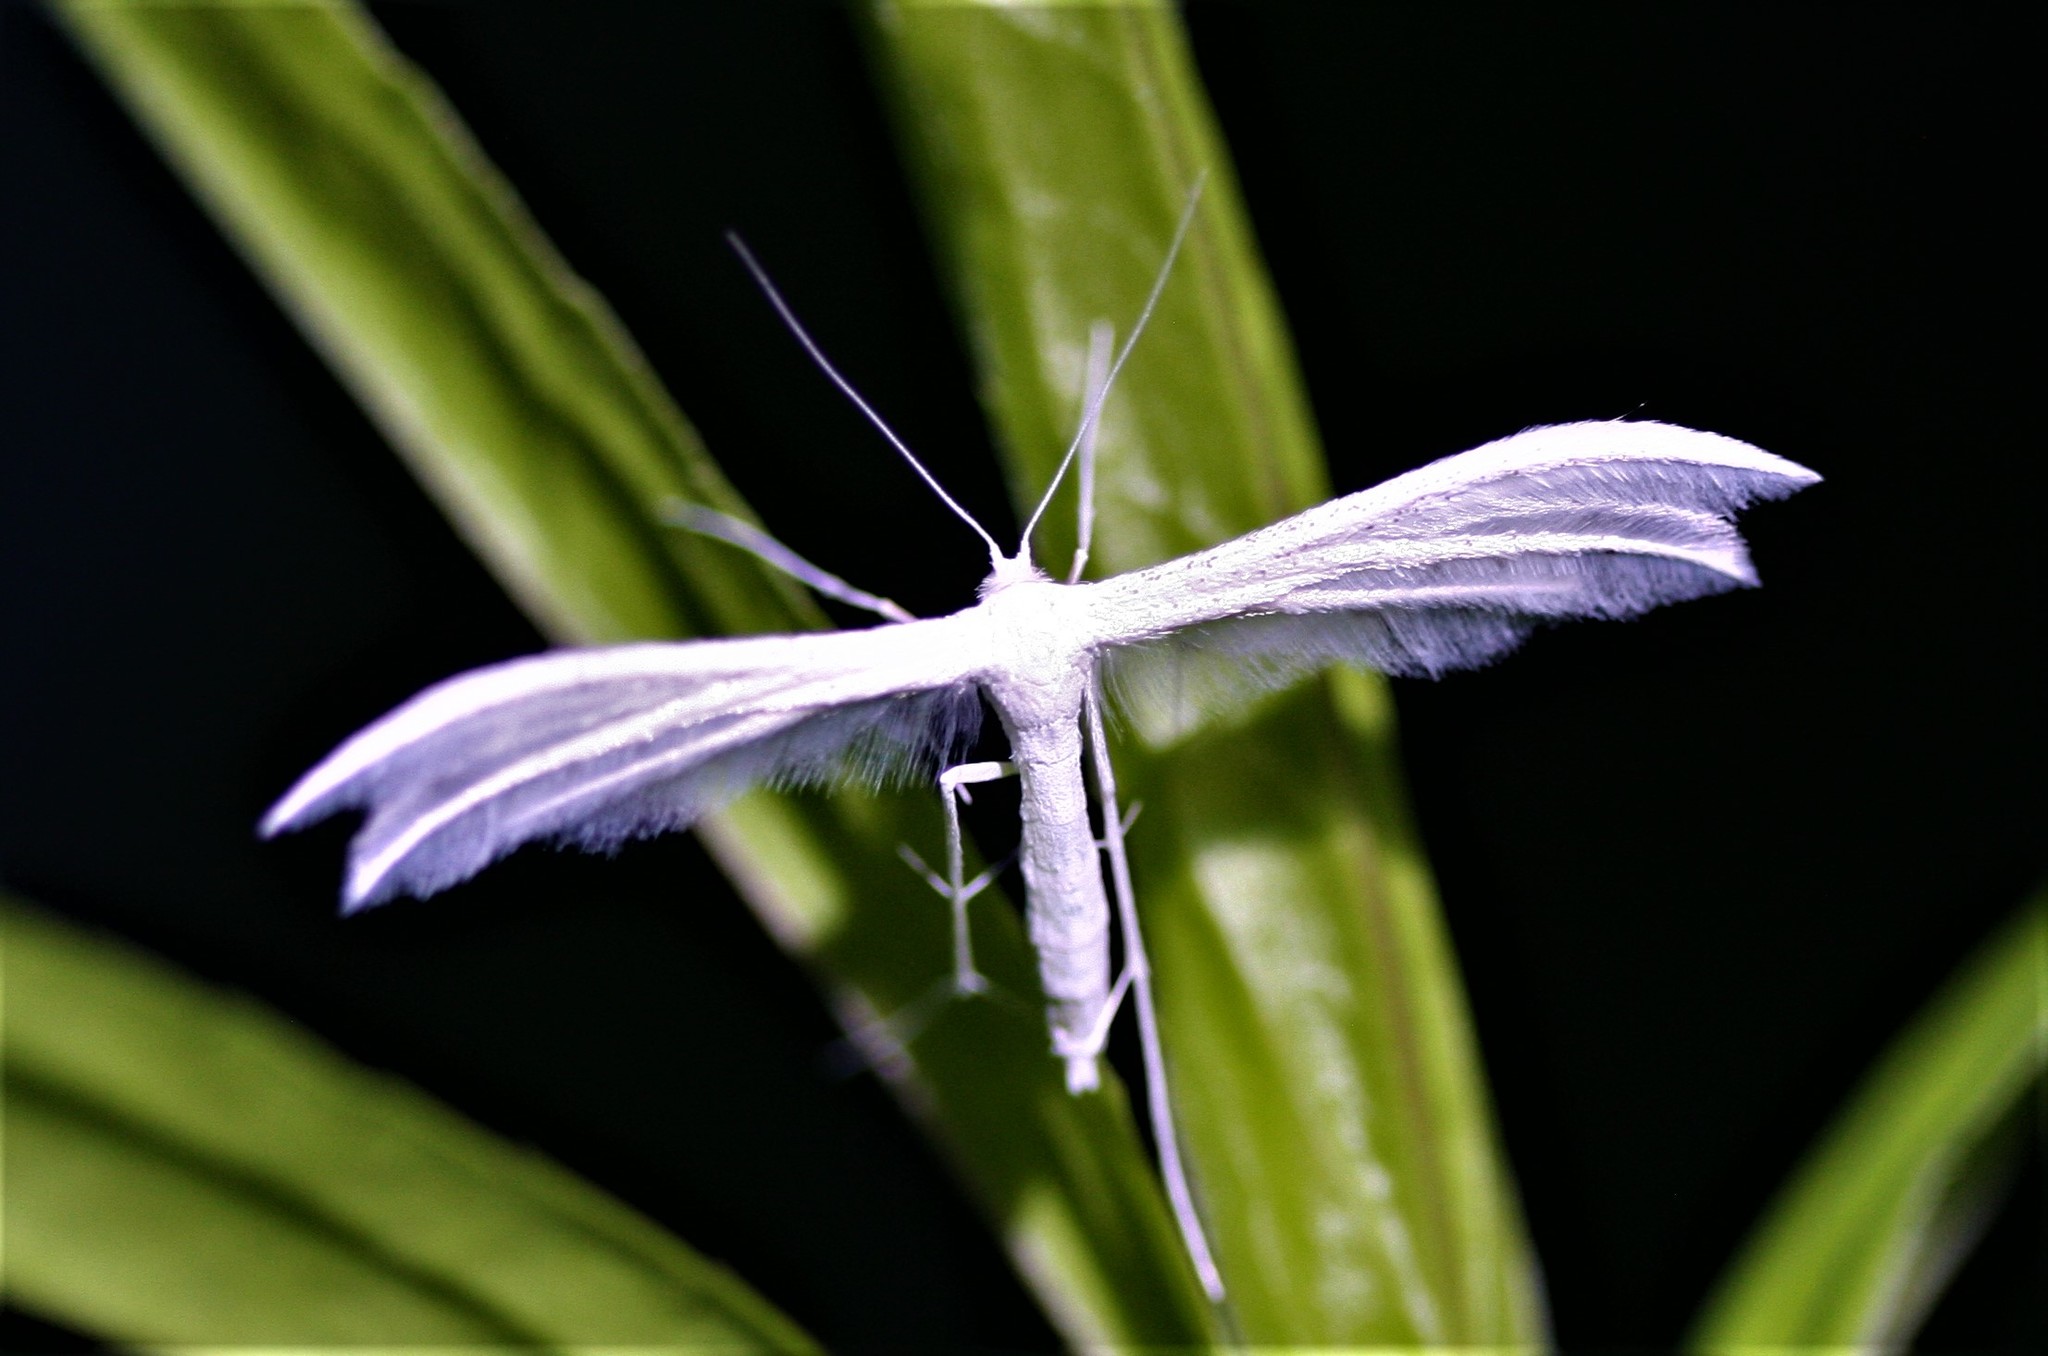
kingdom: Animalia
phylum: Arthropoda
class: Insecta
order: Lepidoptera
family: Pterophoridae
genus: Pterophorus
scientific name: Pterophorus pentadactyla
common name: White plume moth
